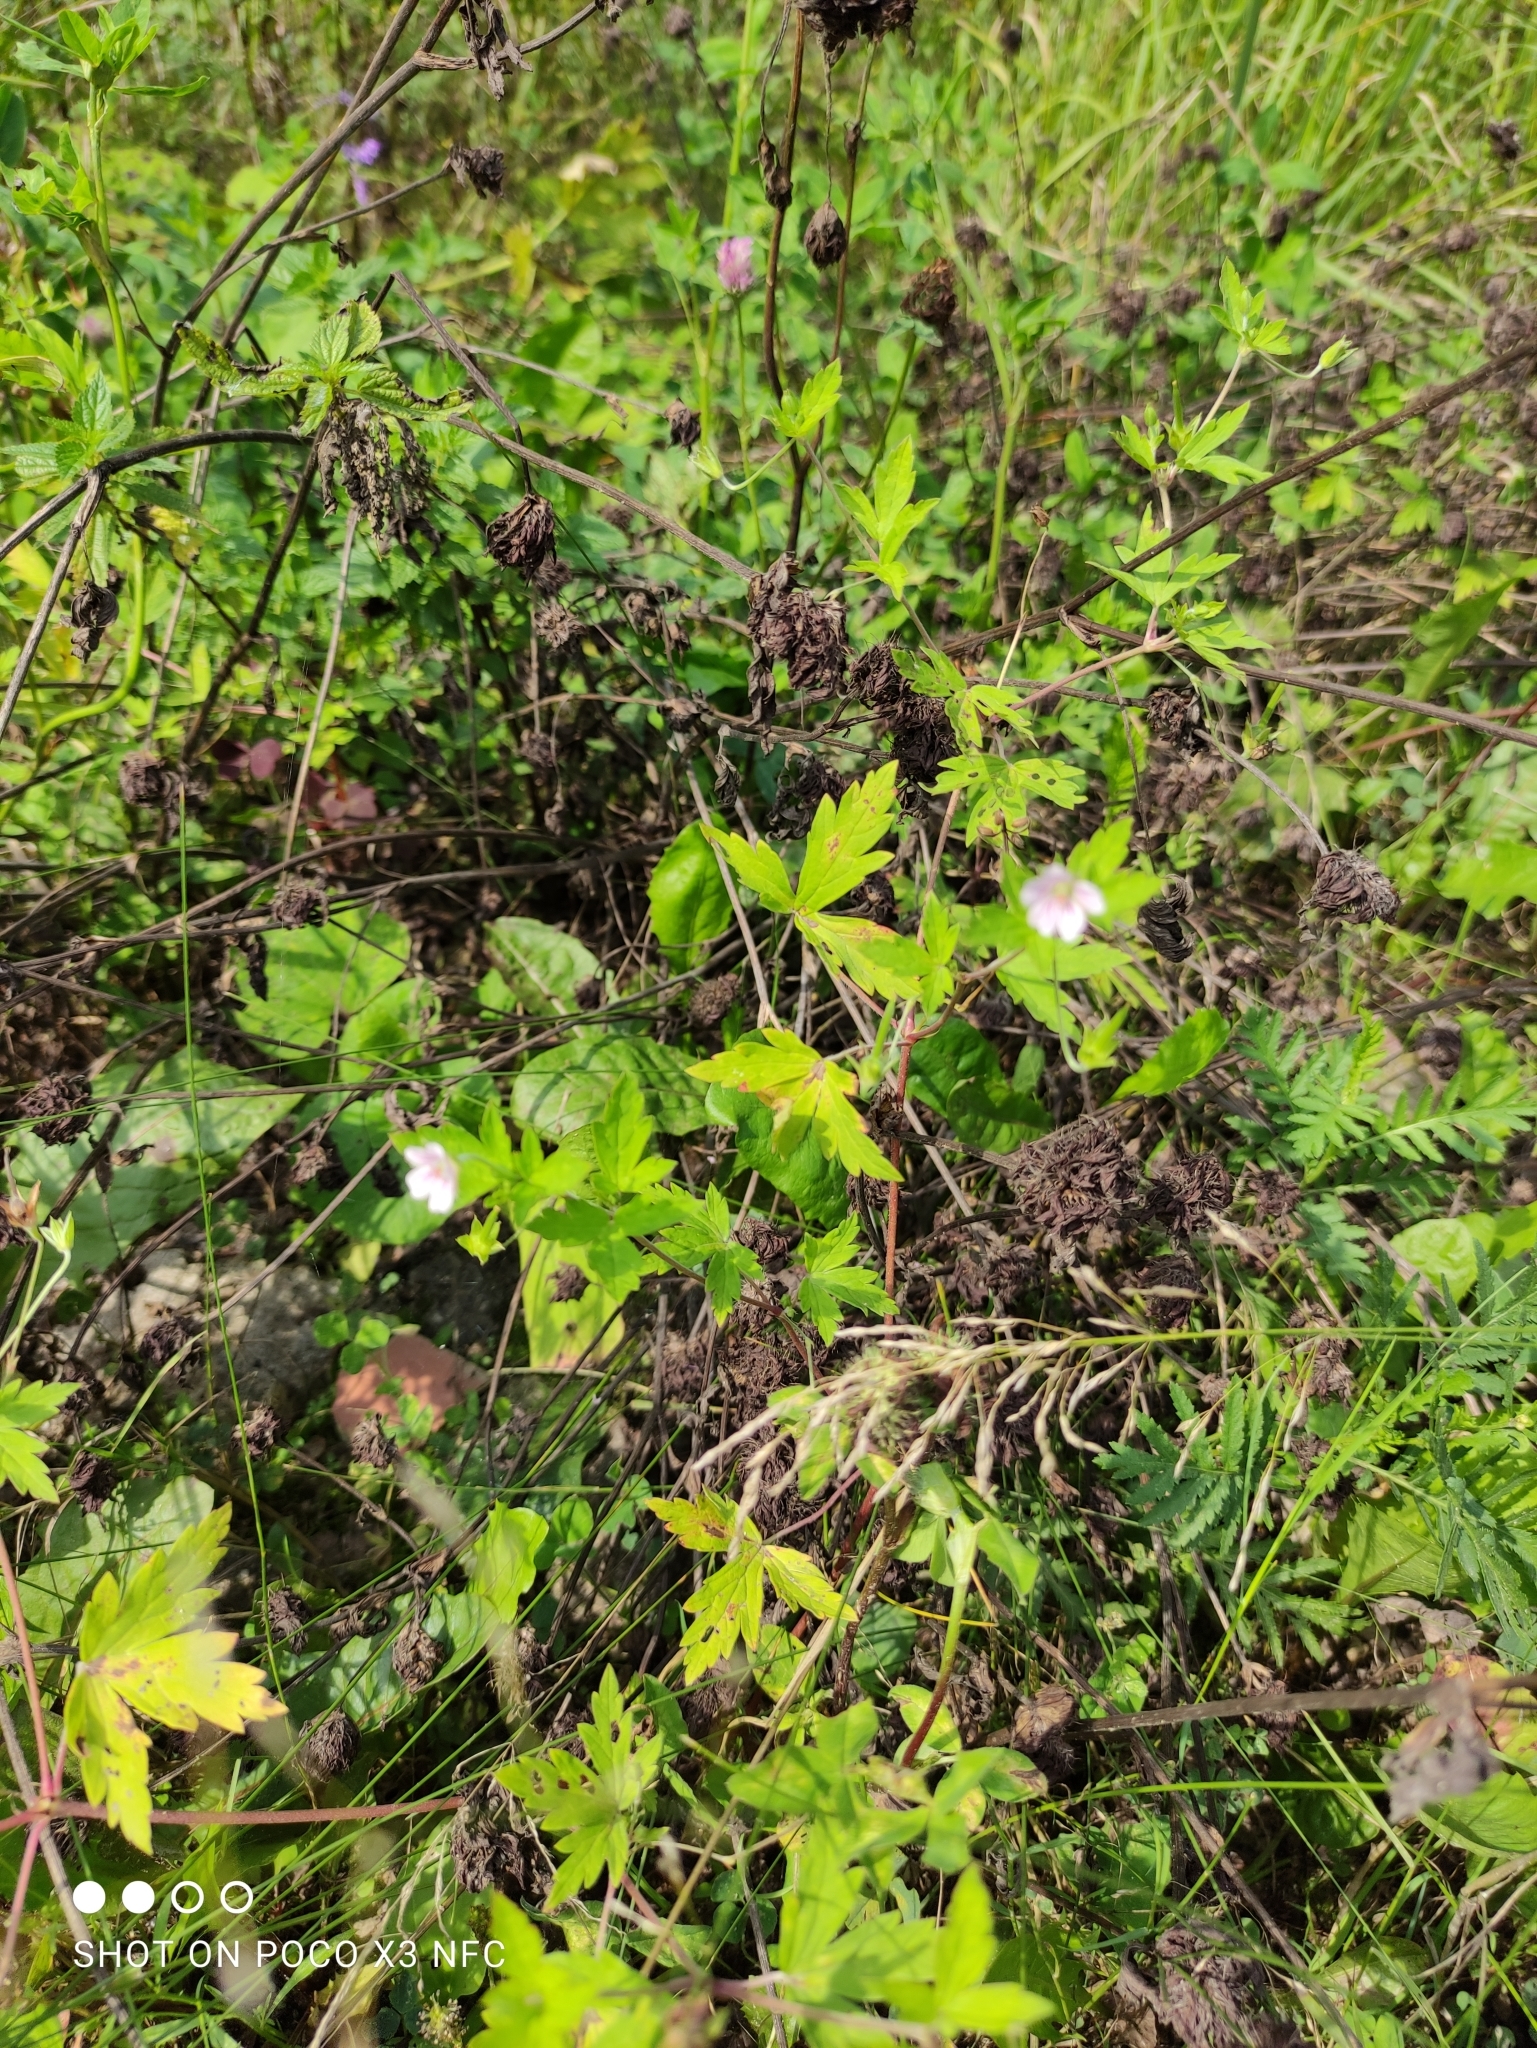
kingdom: Plantae
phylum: Tracheophyta
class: Magnoliopsida
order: Geraniales
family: Geraniaceae
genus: Geranium
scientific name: Geranium sibiricum
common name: Siberian crane's-bill
